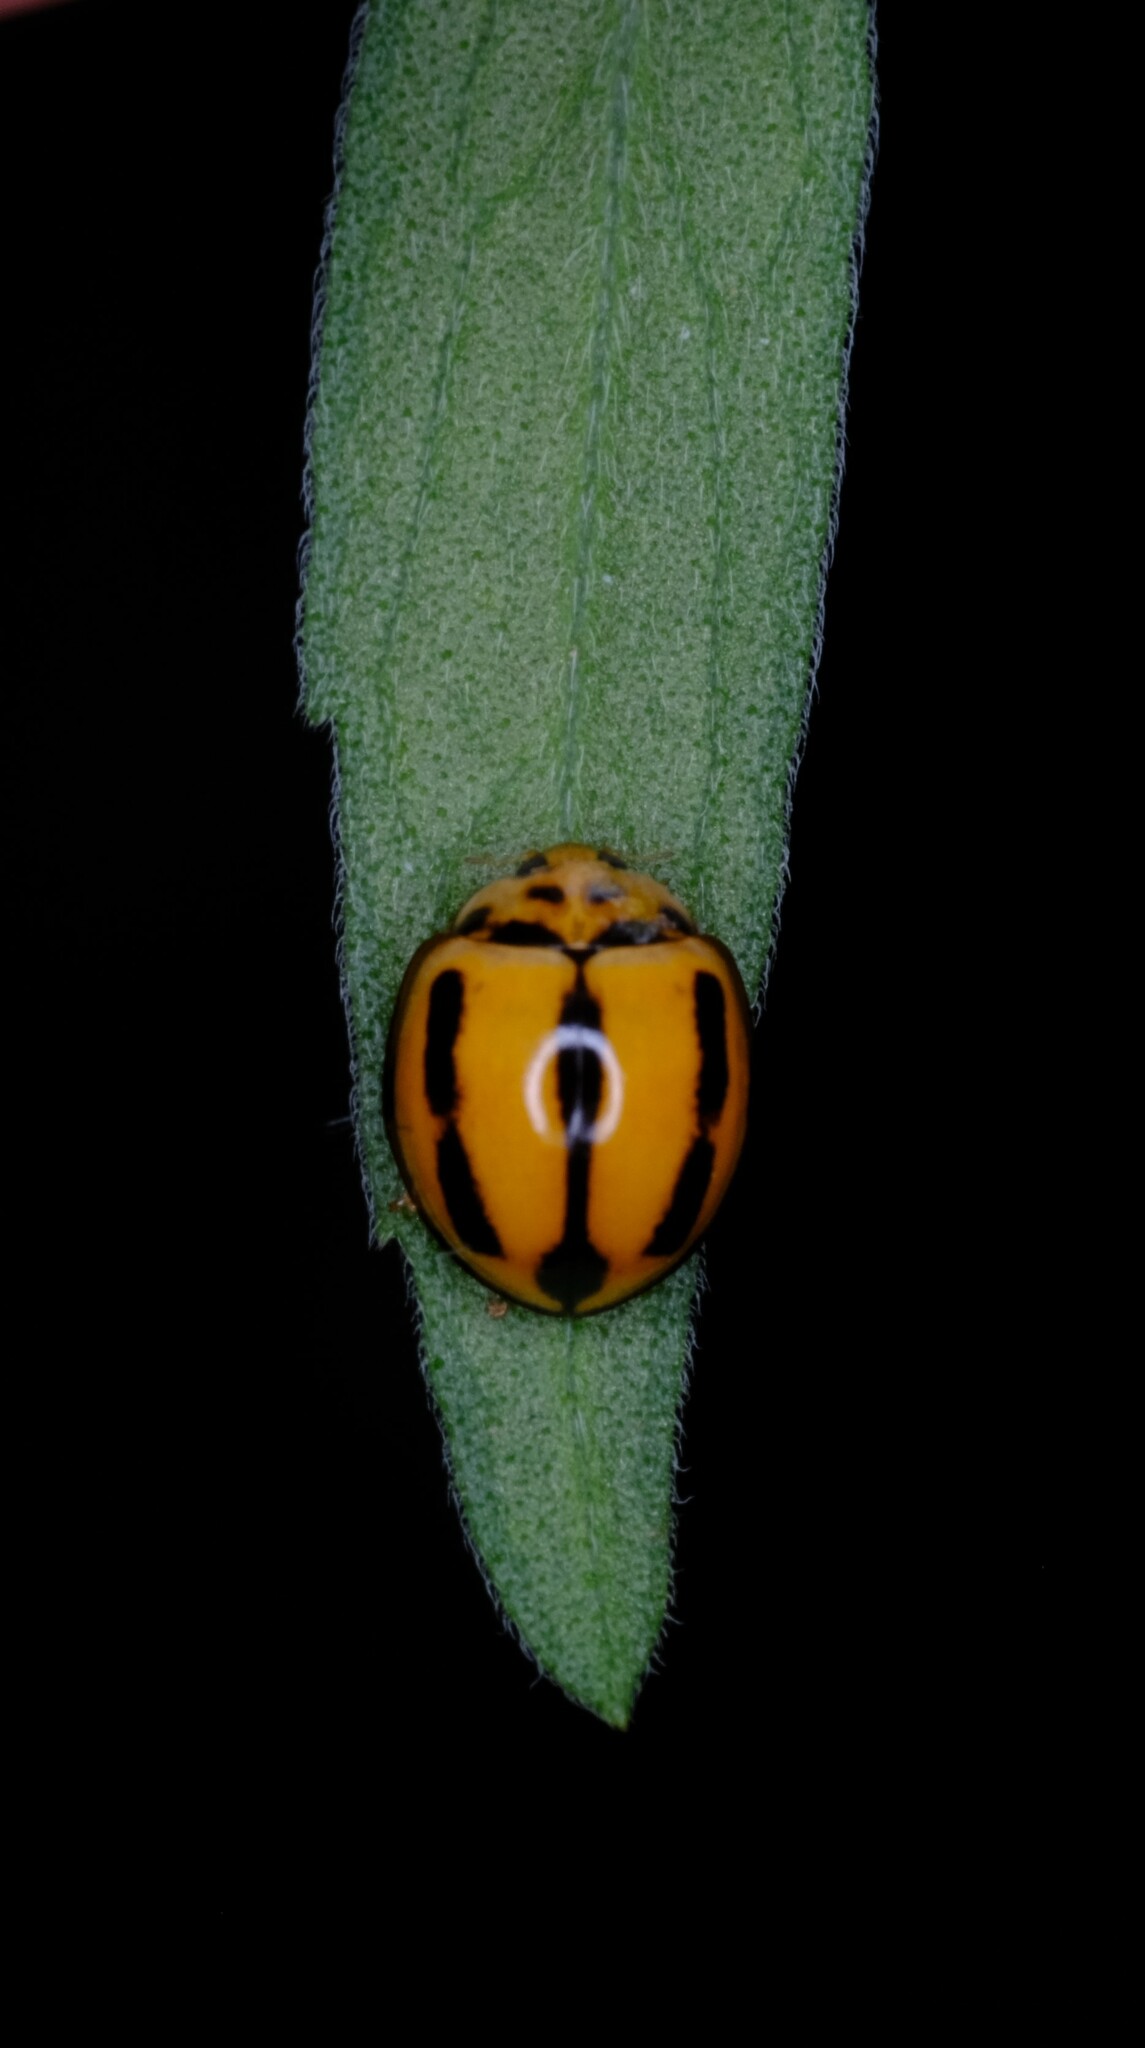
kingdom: Animalia
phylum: Arthropoda
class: Insecta
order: Coleoptera
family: Coccinellidae
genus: Coelophora
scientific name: Coelophora inaequalis
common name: Common australian lady beetle
